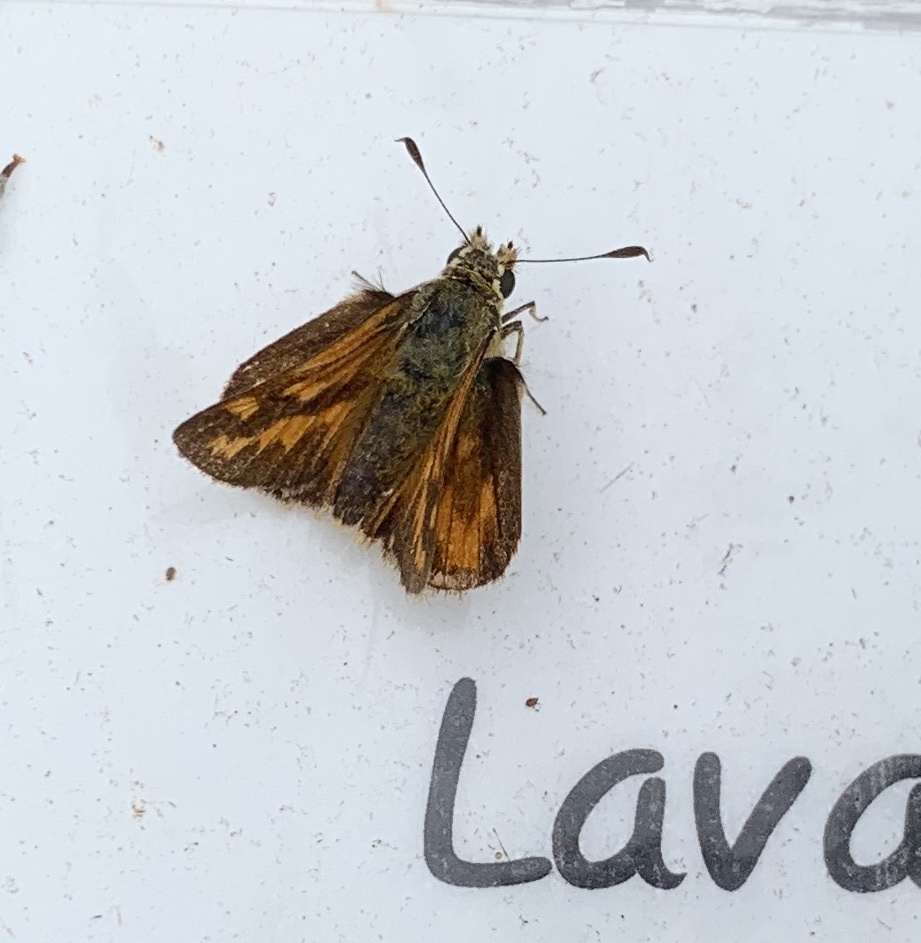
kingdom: Animalia
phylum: Arthropoda
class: Insecta
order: Lepidoptera
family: Hesperiidae
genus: Ochlodes
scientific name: Ochlodes sylvanoides
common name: Woodland skipper
